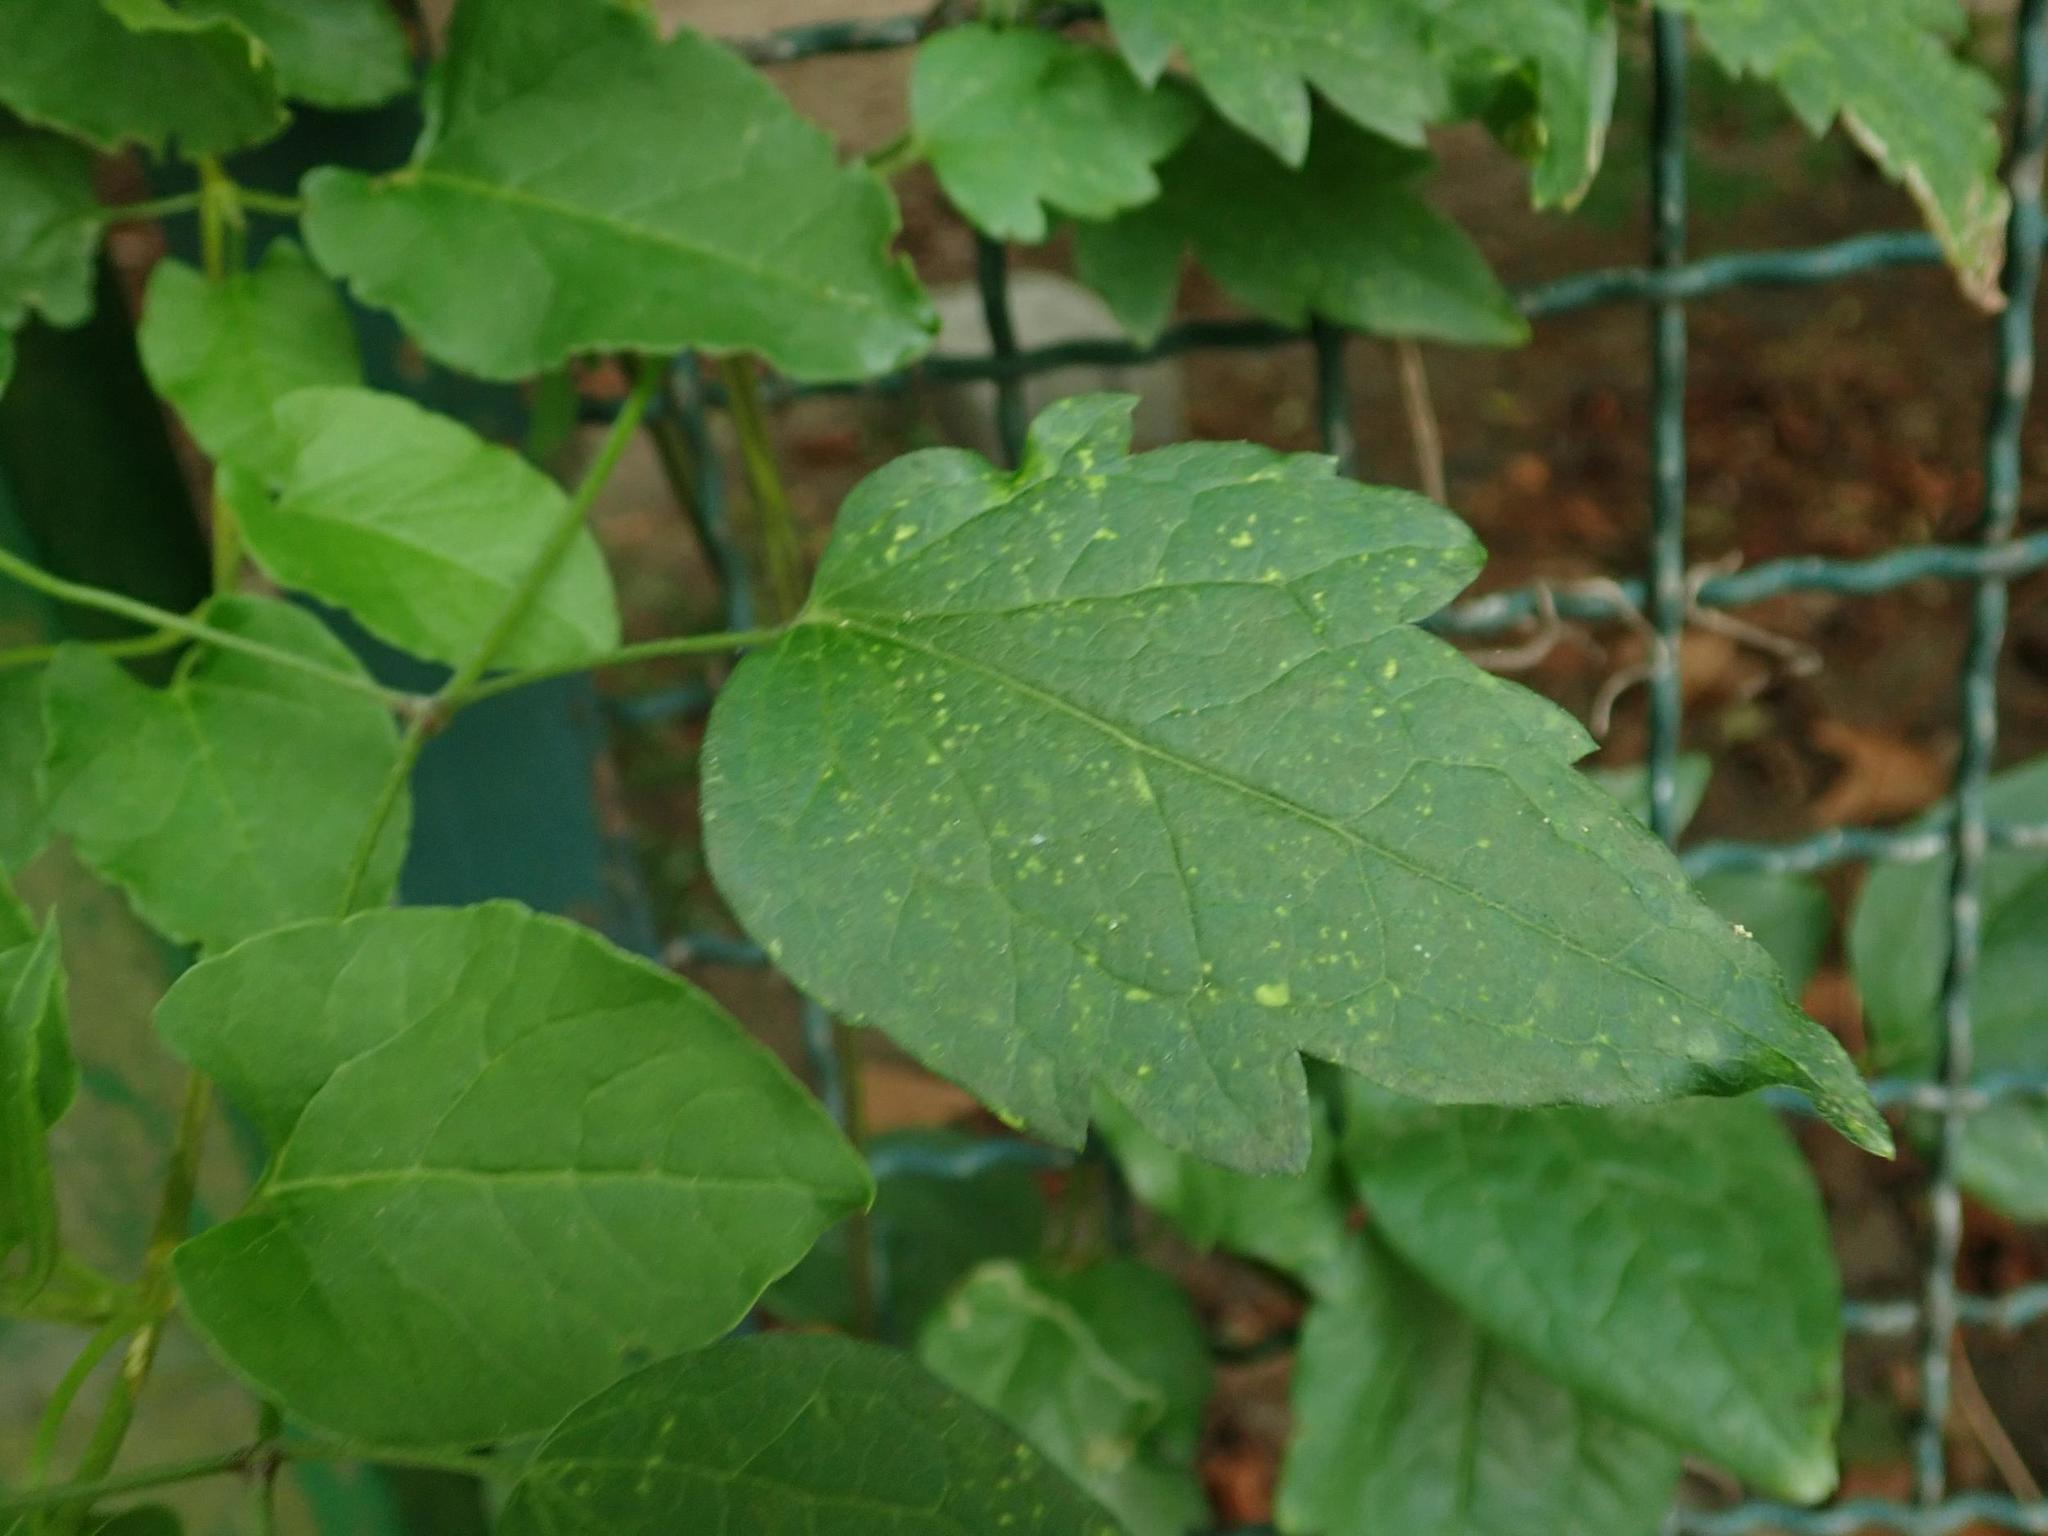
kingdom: Plantae
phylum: Tracheophyta
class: Magnoliopsida
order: Ranunculales
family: Ranunculaceae
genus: Clematis
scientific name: Clematis vitalba
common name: Evergreen clematis
